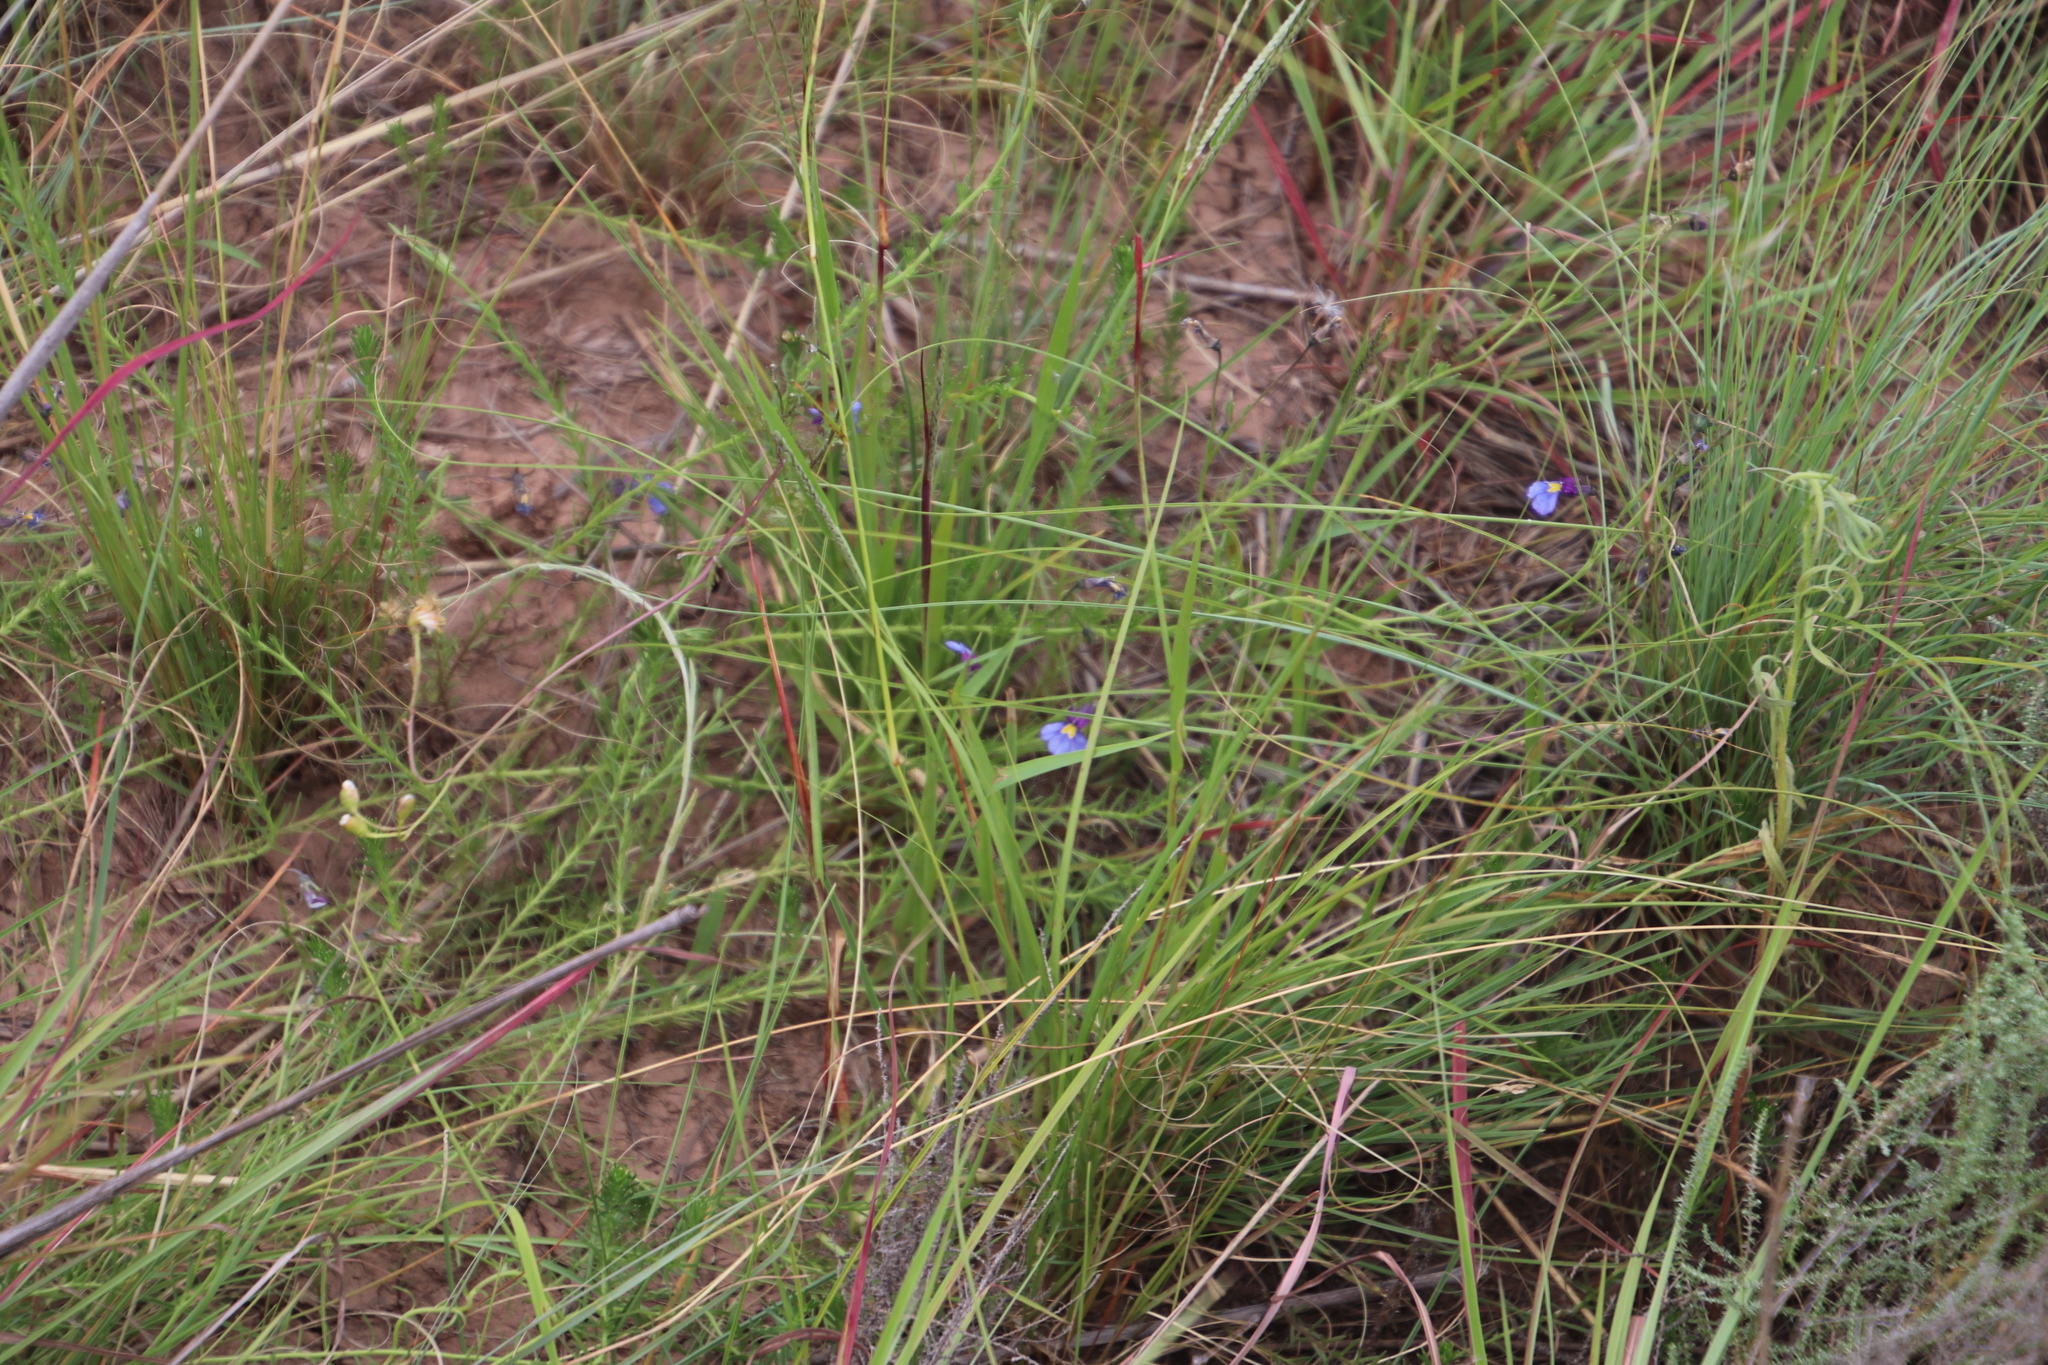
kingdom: Plantae
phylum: Tracheophyta
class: Magnoliopsida
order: Asterales
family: Campanulaceae
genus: Monopsis
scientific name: Monopsis decipiens
